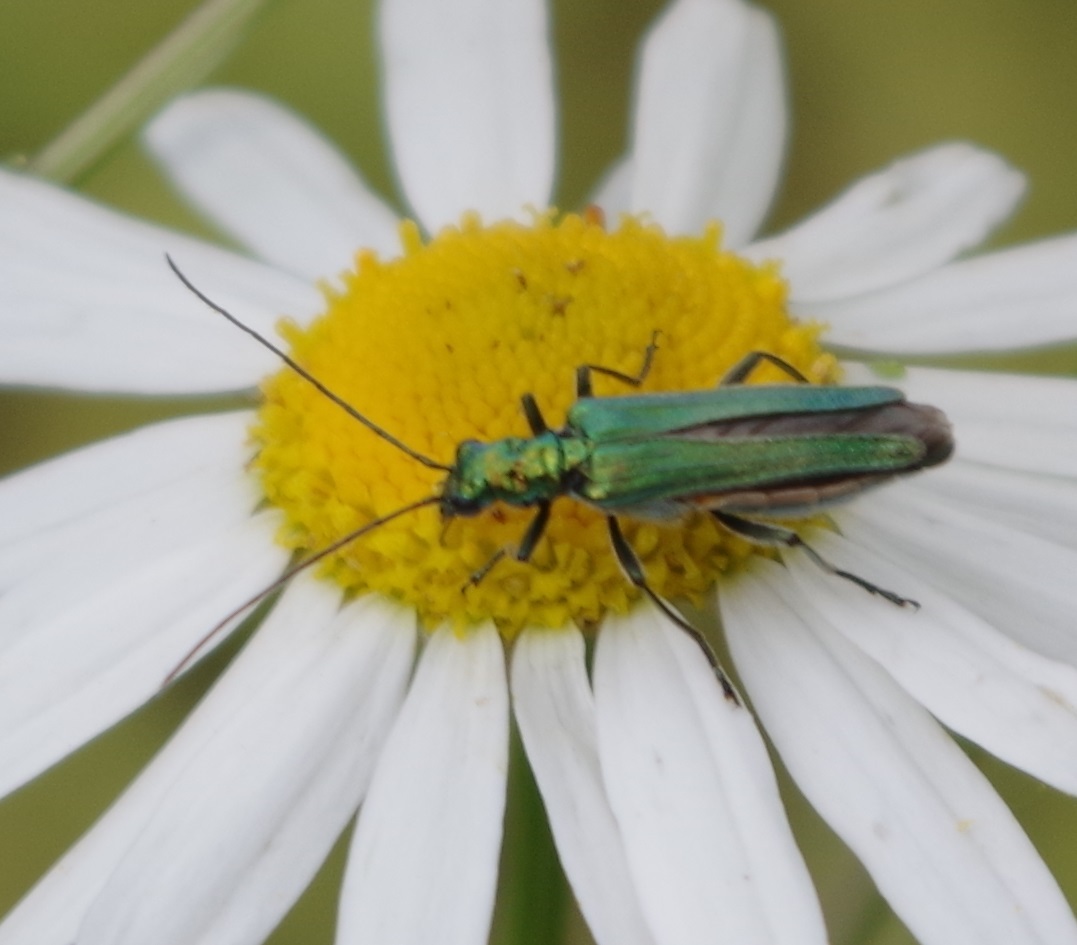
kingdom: Animalia
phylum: Arthropoda
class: Insecta
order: Coleoptera
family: Oedemeridae
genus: Oedemera
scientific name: Oedemera nobilis
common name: Swollen-thighed beetle
